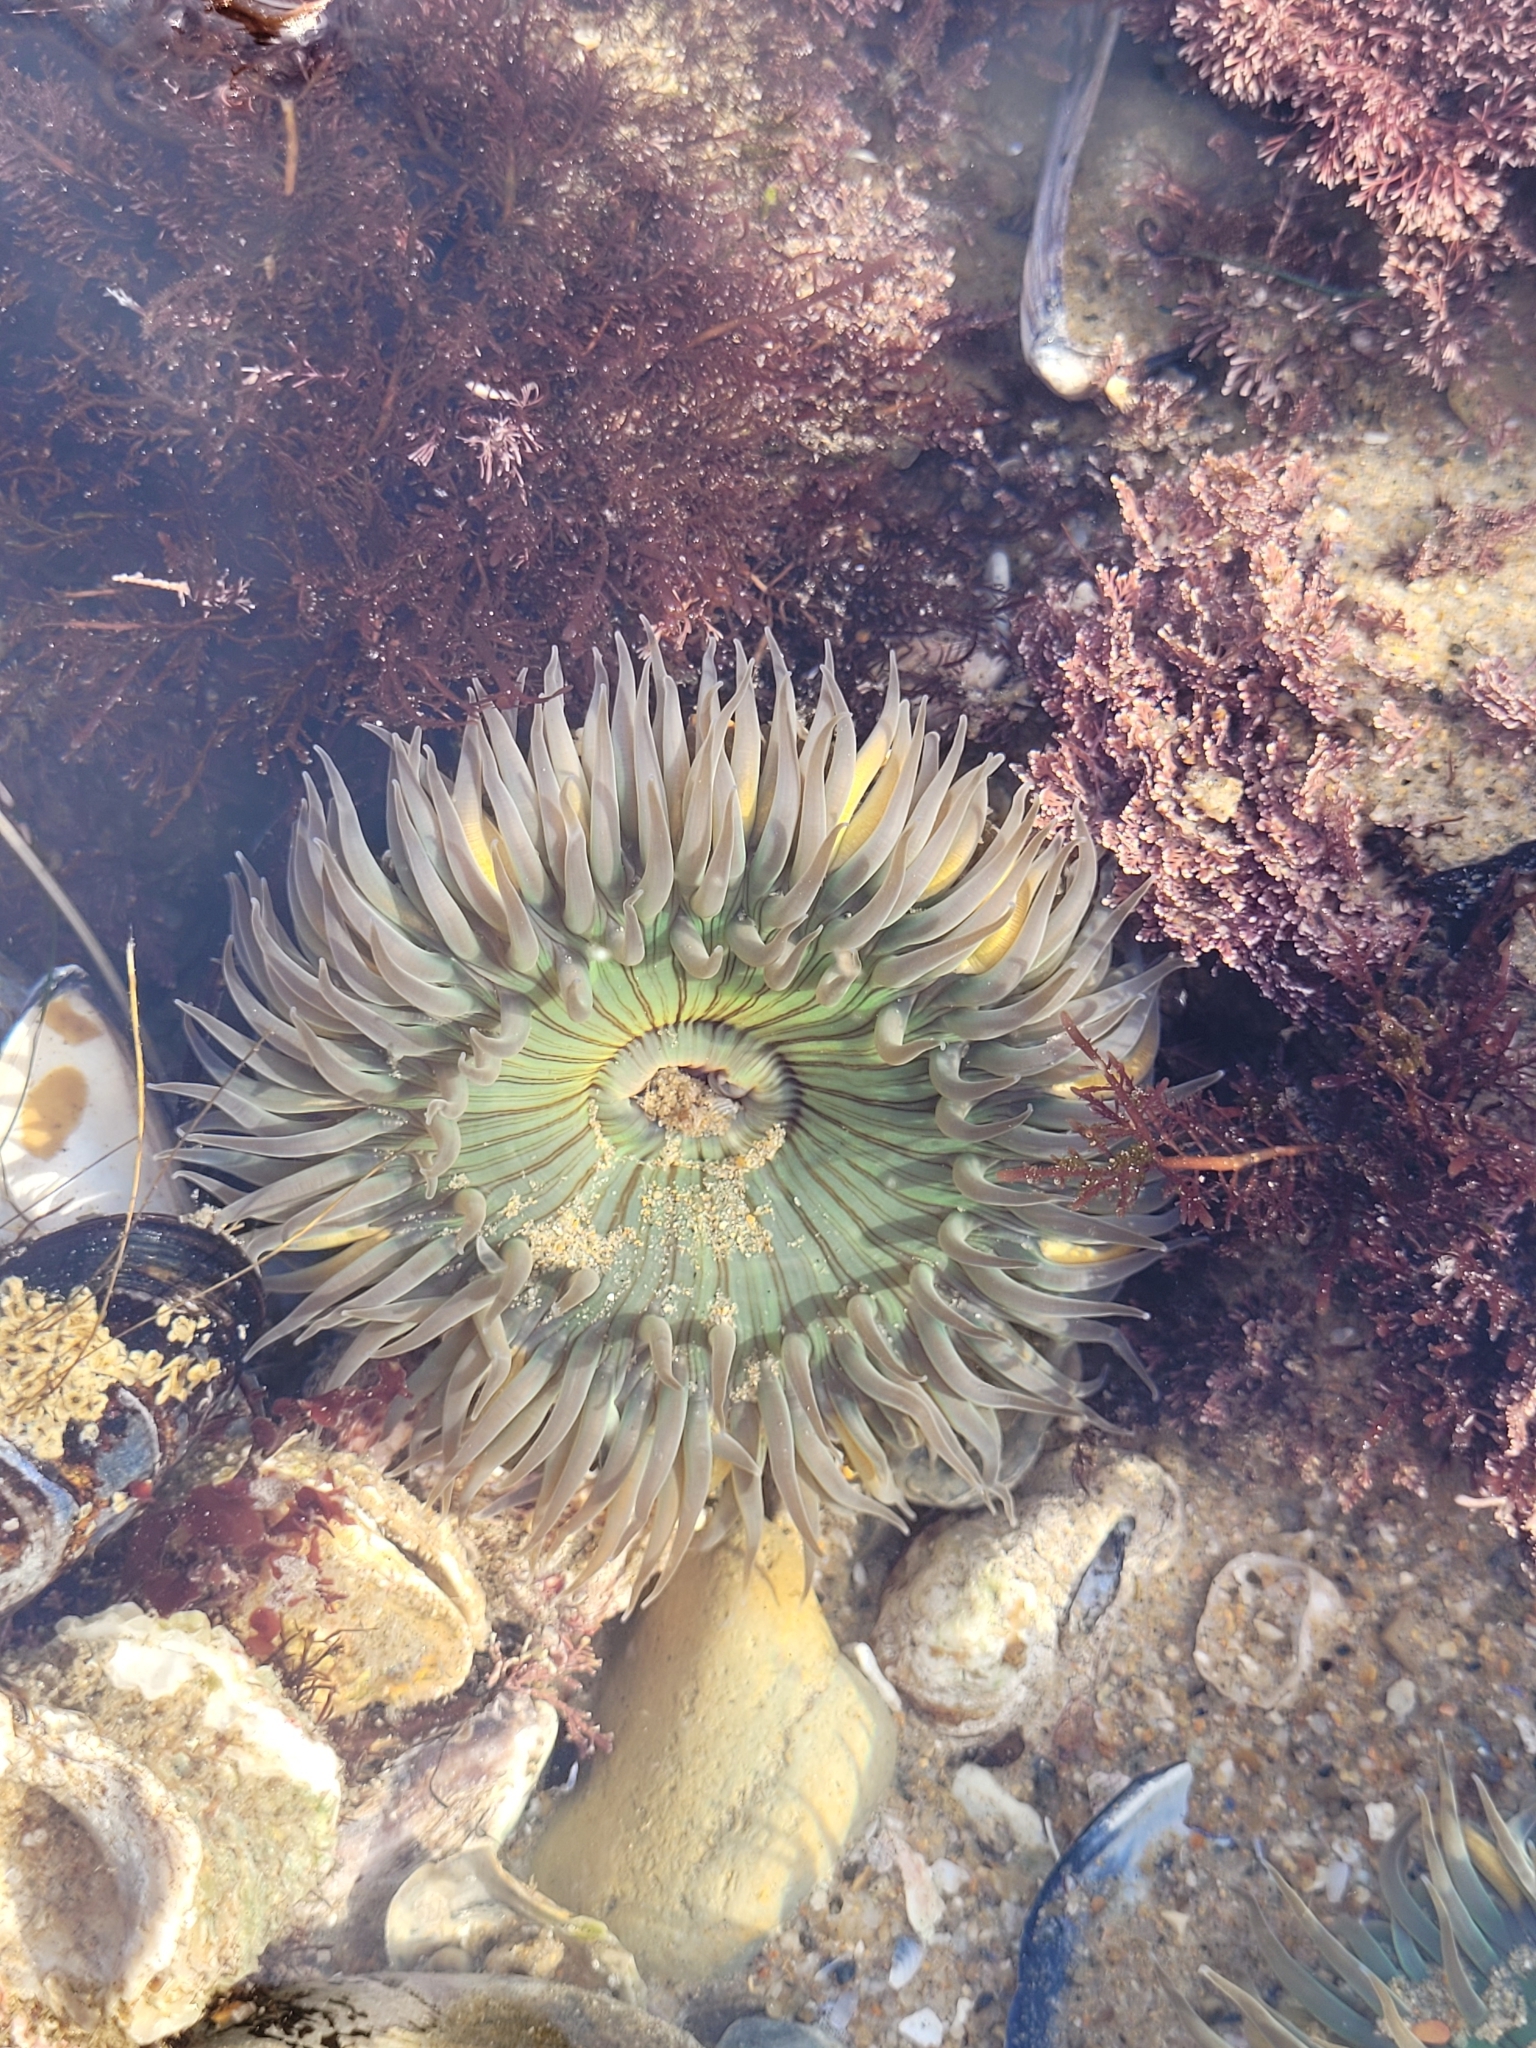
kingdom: Animalia
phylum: Cnidaria
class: Anthozoa
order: Actiniaria
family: Actiniidae
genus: Anthopleura
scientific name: Anthopleura sola
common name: Sun anemone
